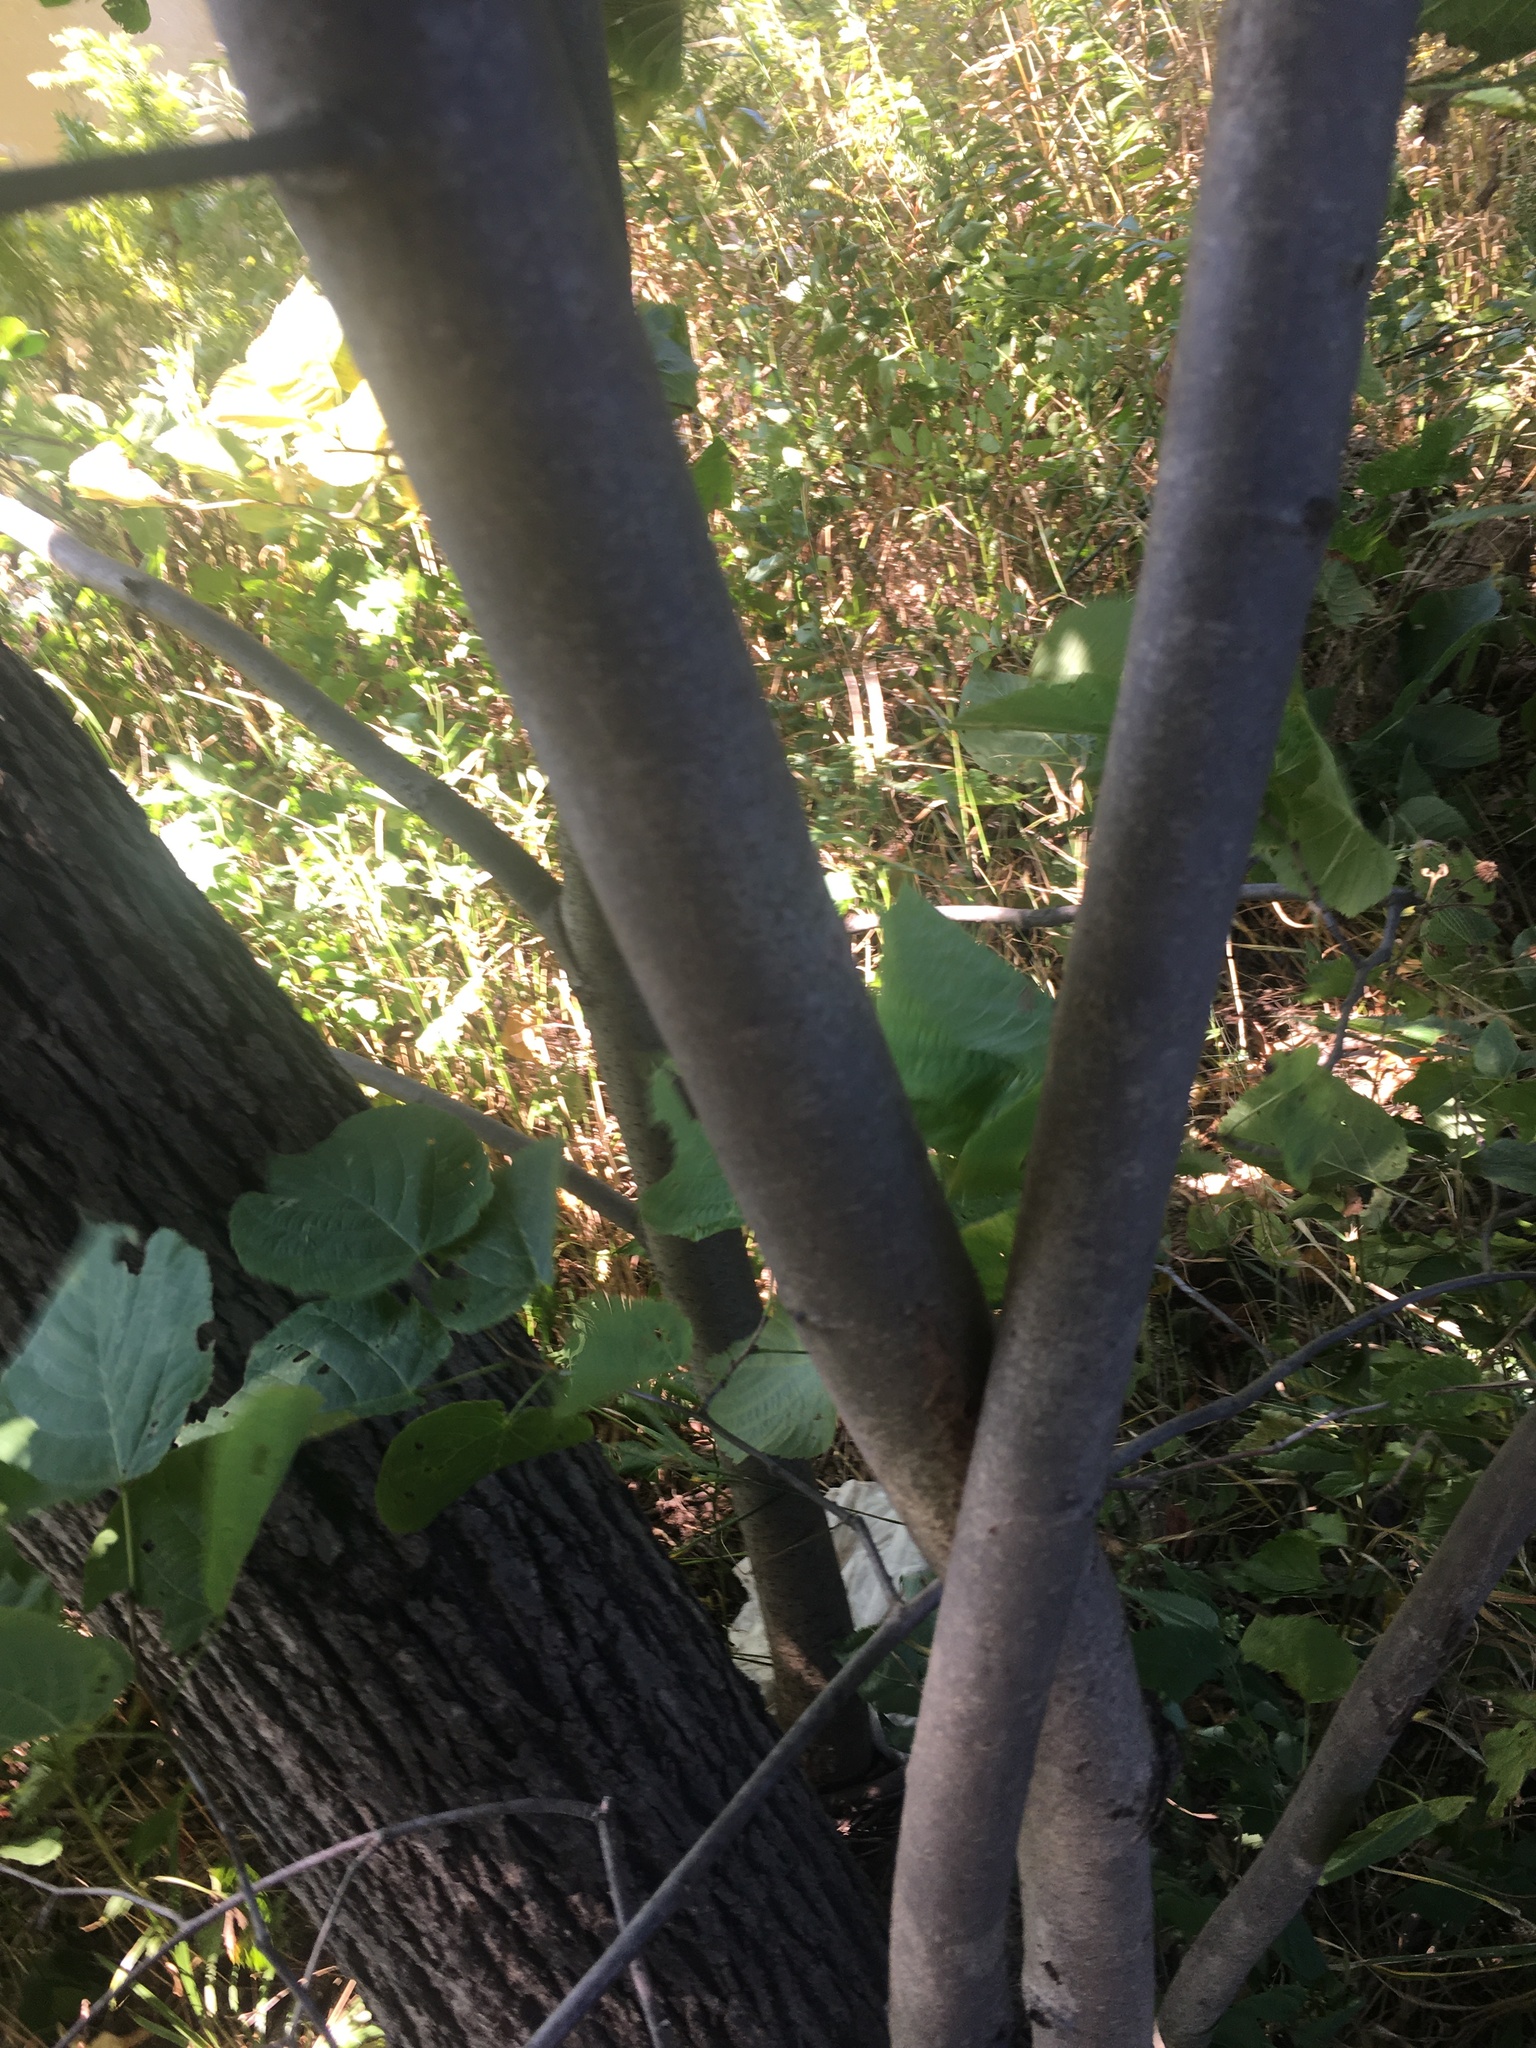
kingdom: Plantae
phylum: Tracheophyta
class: Magnoliopsida
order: Malvales
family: Malvaceae
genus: Tilia
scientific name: Tilia americana
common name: Basswood
